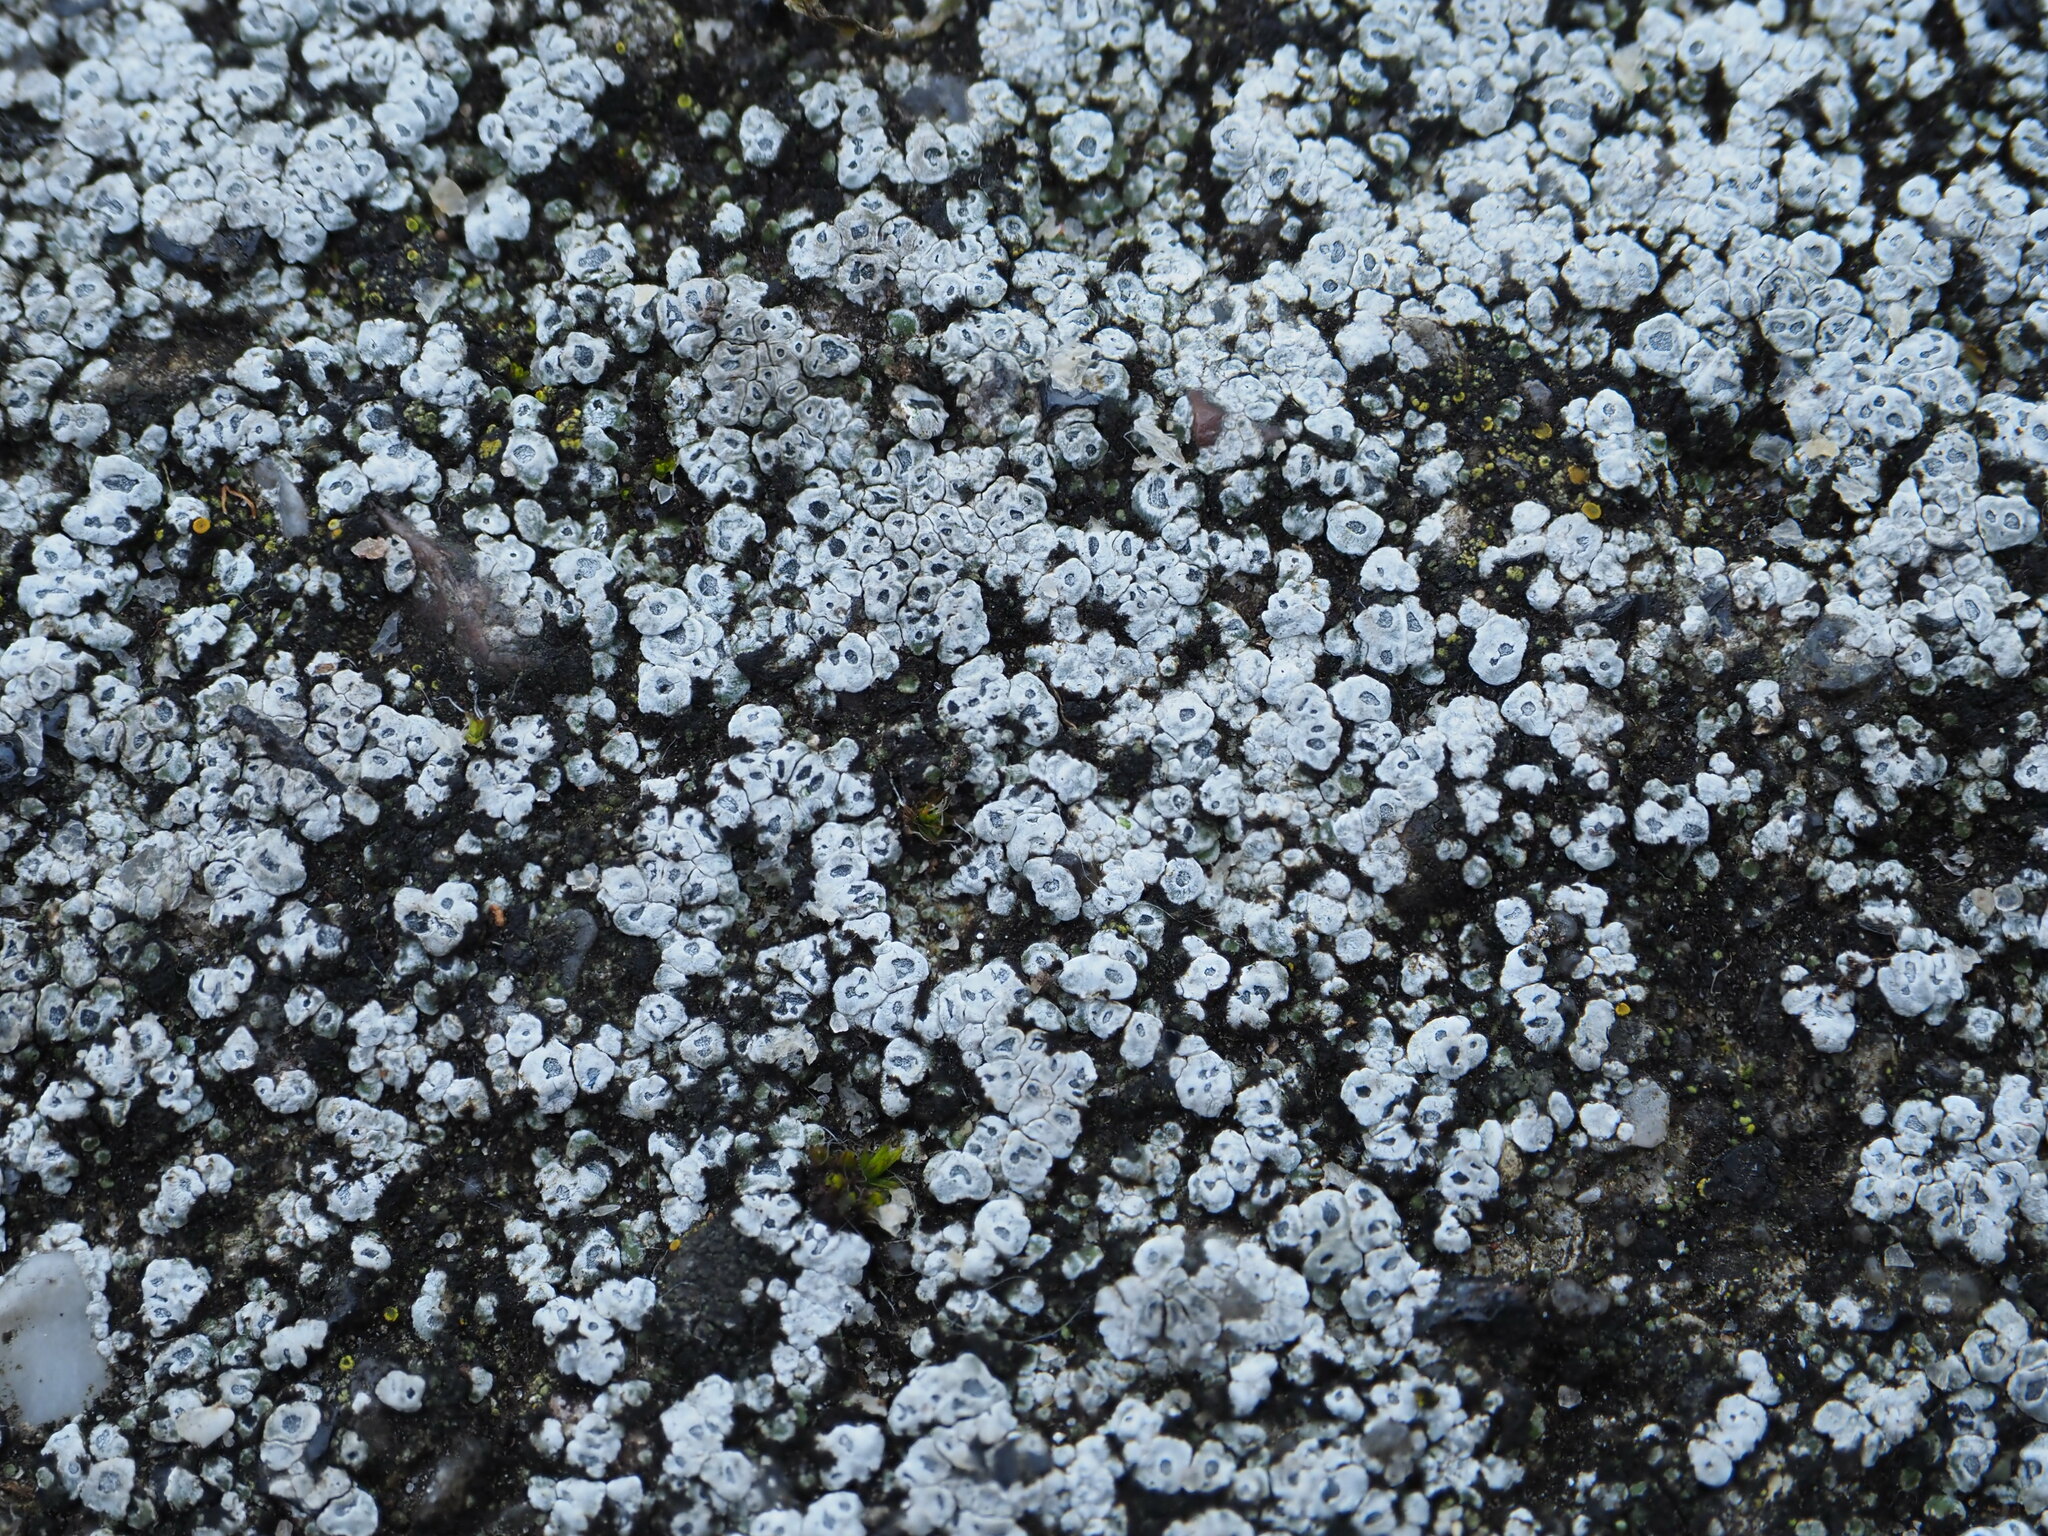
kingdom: Fungi
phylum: Ascomycota
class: Lecanoromycetes
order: Pertusariales
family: Megasporaceae
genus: Circinaria
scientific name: Circinaria contorta
